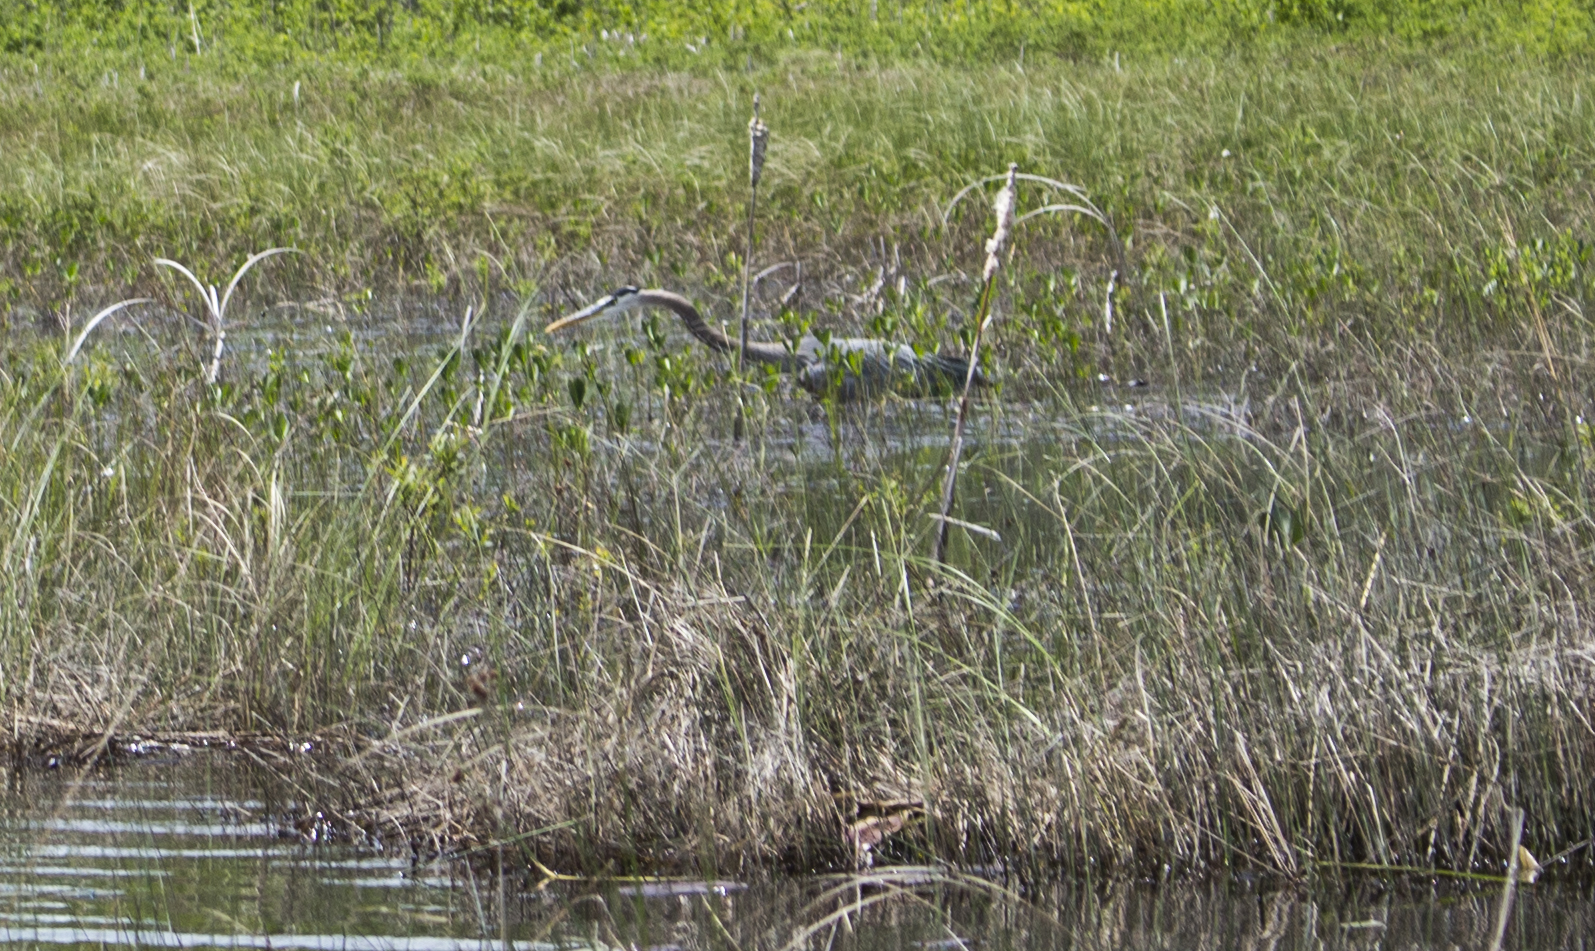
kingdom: Animalia
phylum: Chordata
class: Aves
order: Pelecaniformes
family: Ardeidae
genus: Ardea
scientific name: Ardea herodias
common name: Great blue heron
